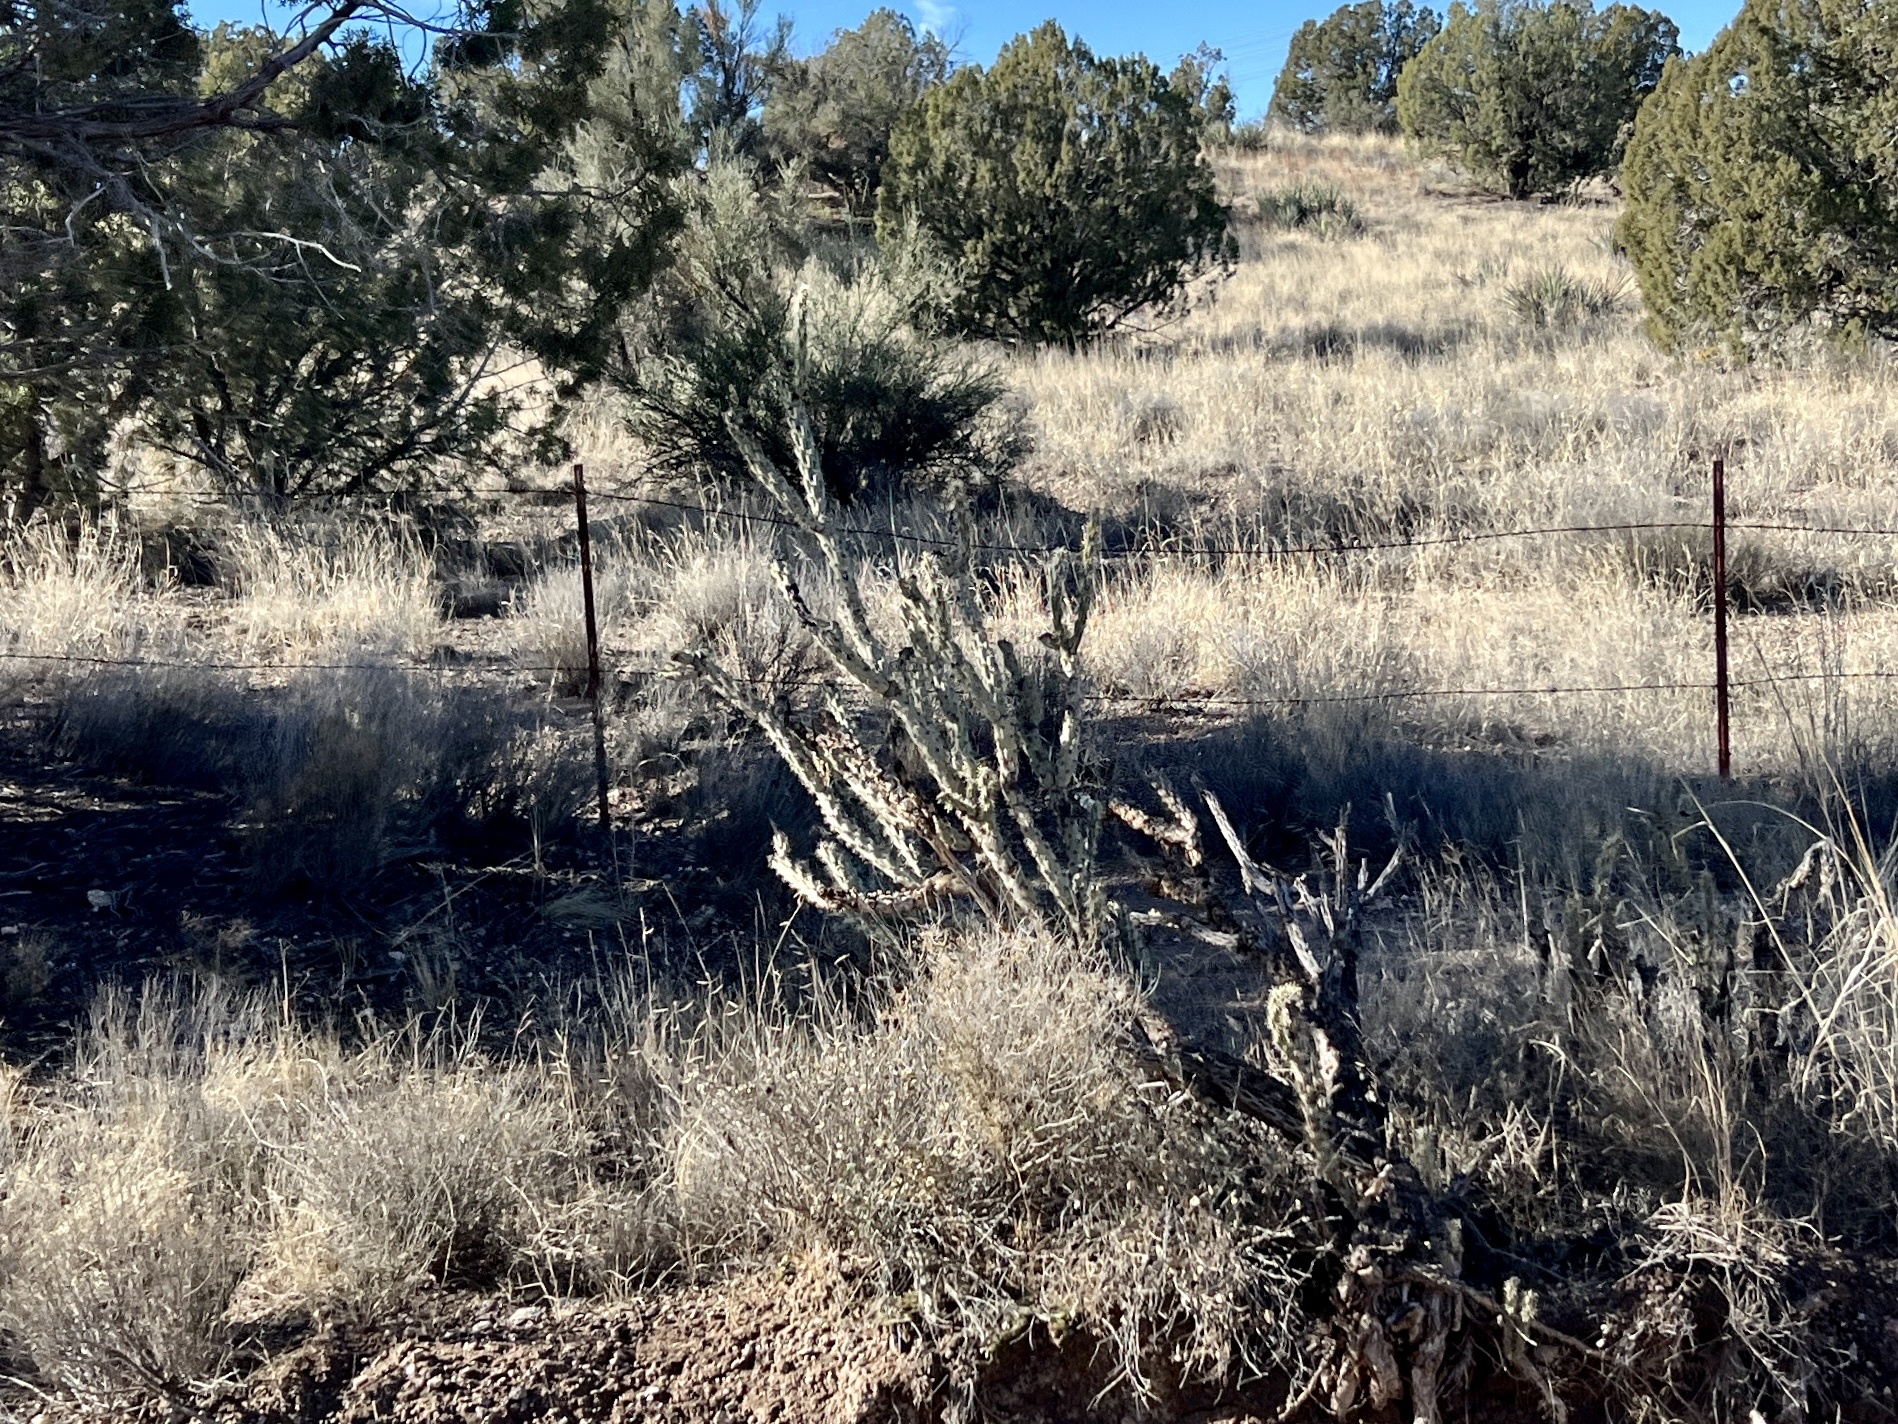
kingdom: Plantae
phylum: Tracheophyta
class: Magnoliopsida
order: Caryophyllales
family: Cactaceae
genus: Cylindropuntia
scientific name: Cylindropuntia acanthocarpa
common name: Buckhorn cholla
